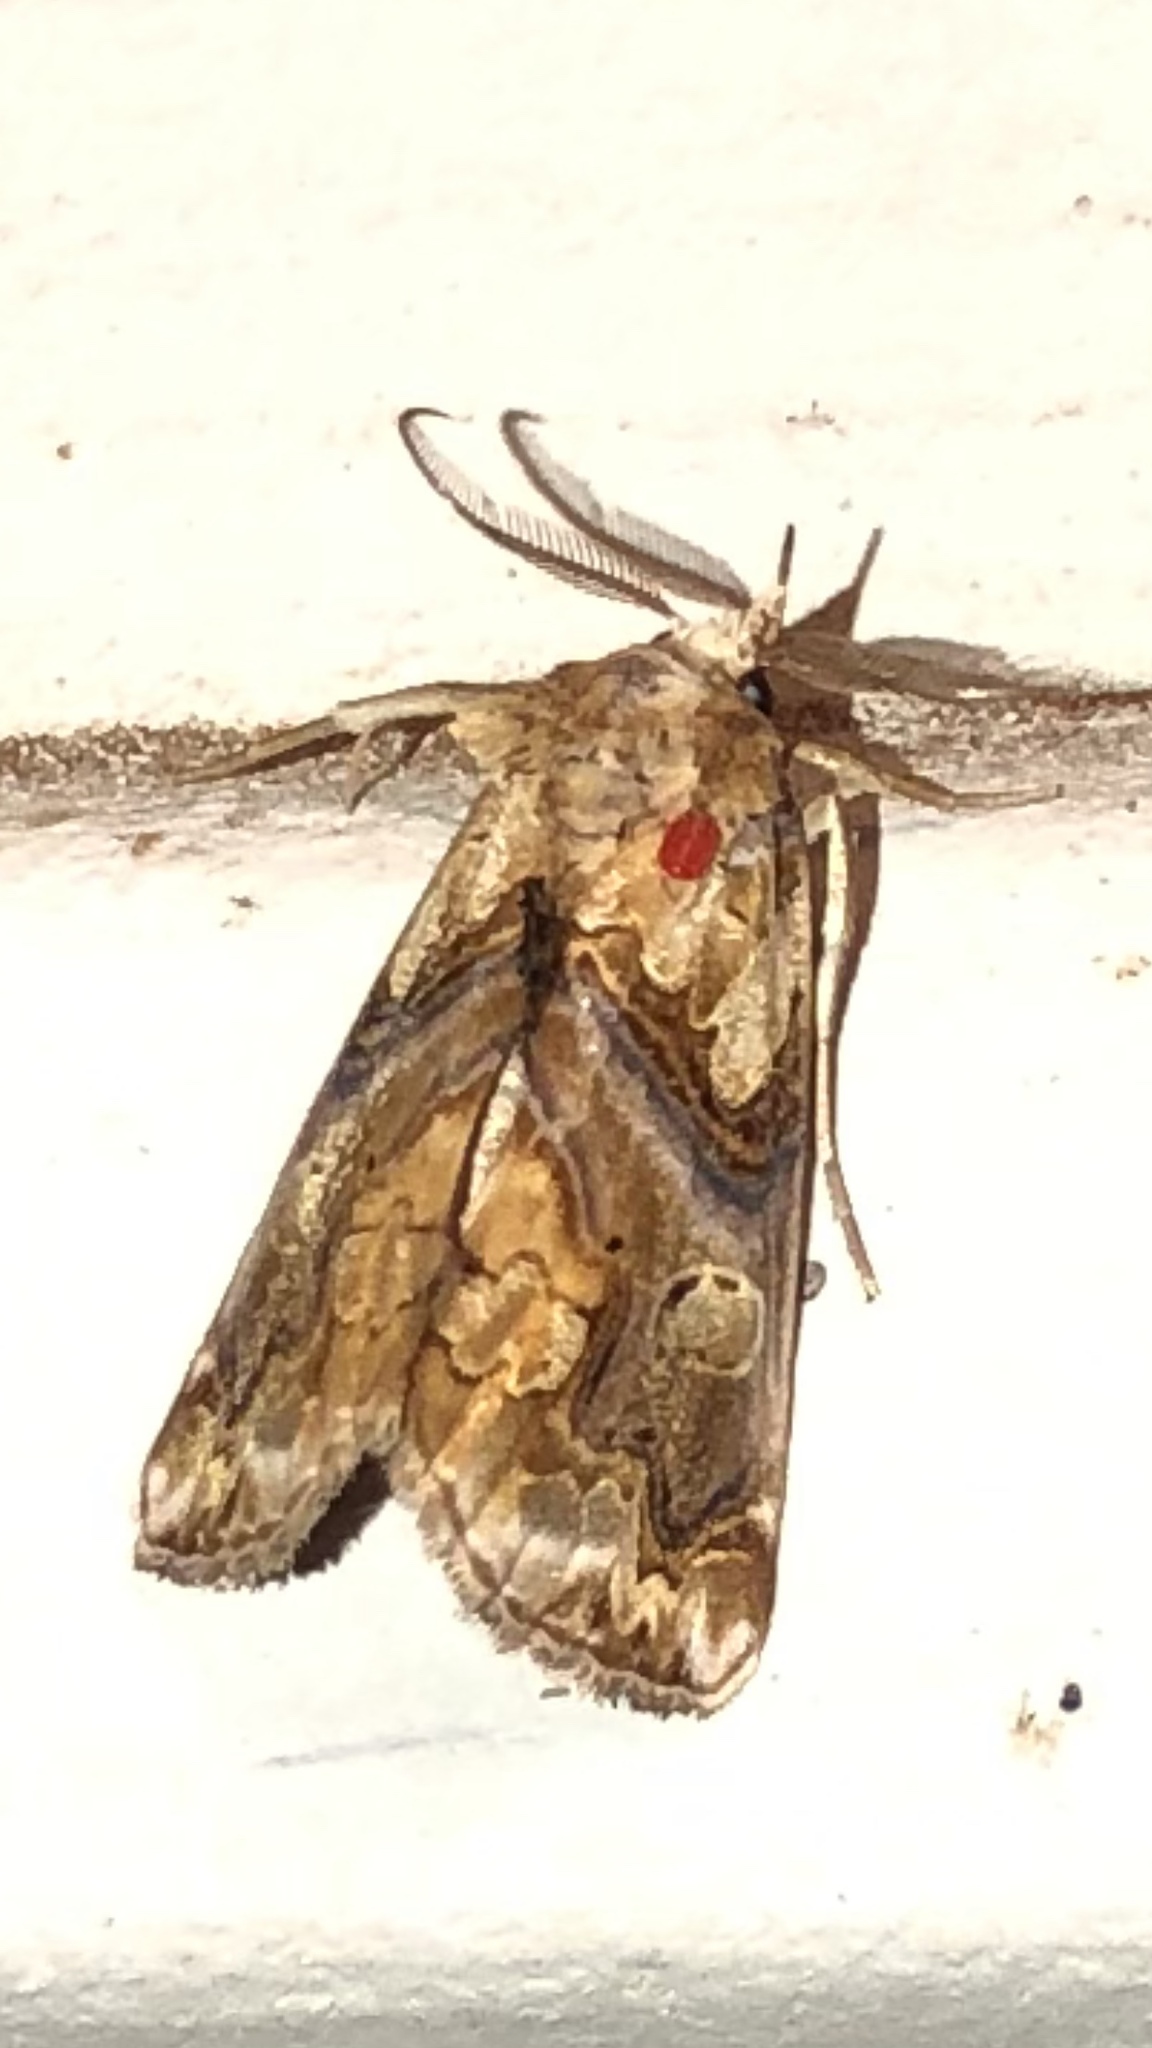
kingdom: Animalia
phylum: Arthropoda
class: Insecta
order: Lepidoptera
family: Erebidae
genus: Plusiodonta
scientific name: Plusiodonta compressipalpis
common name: Moonseed moth
